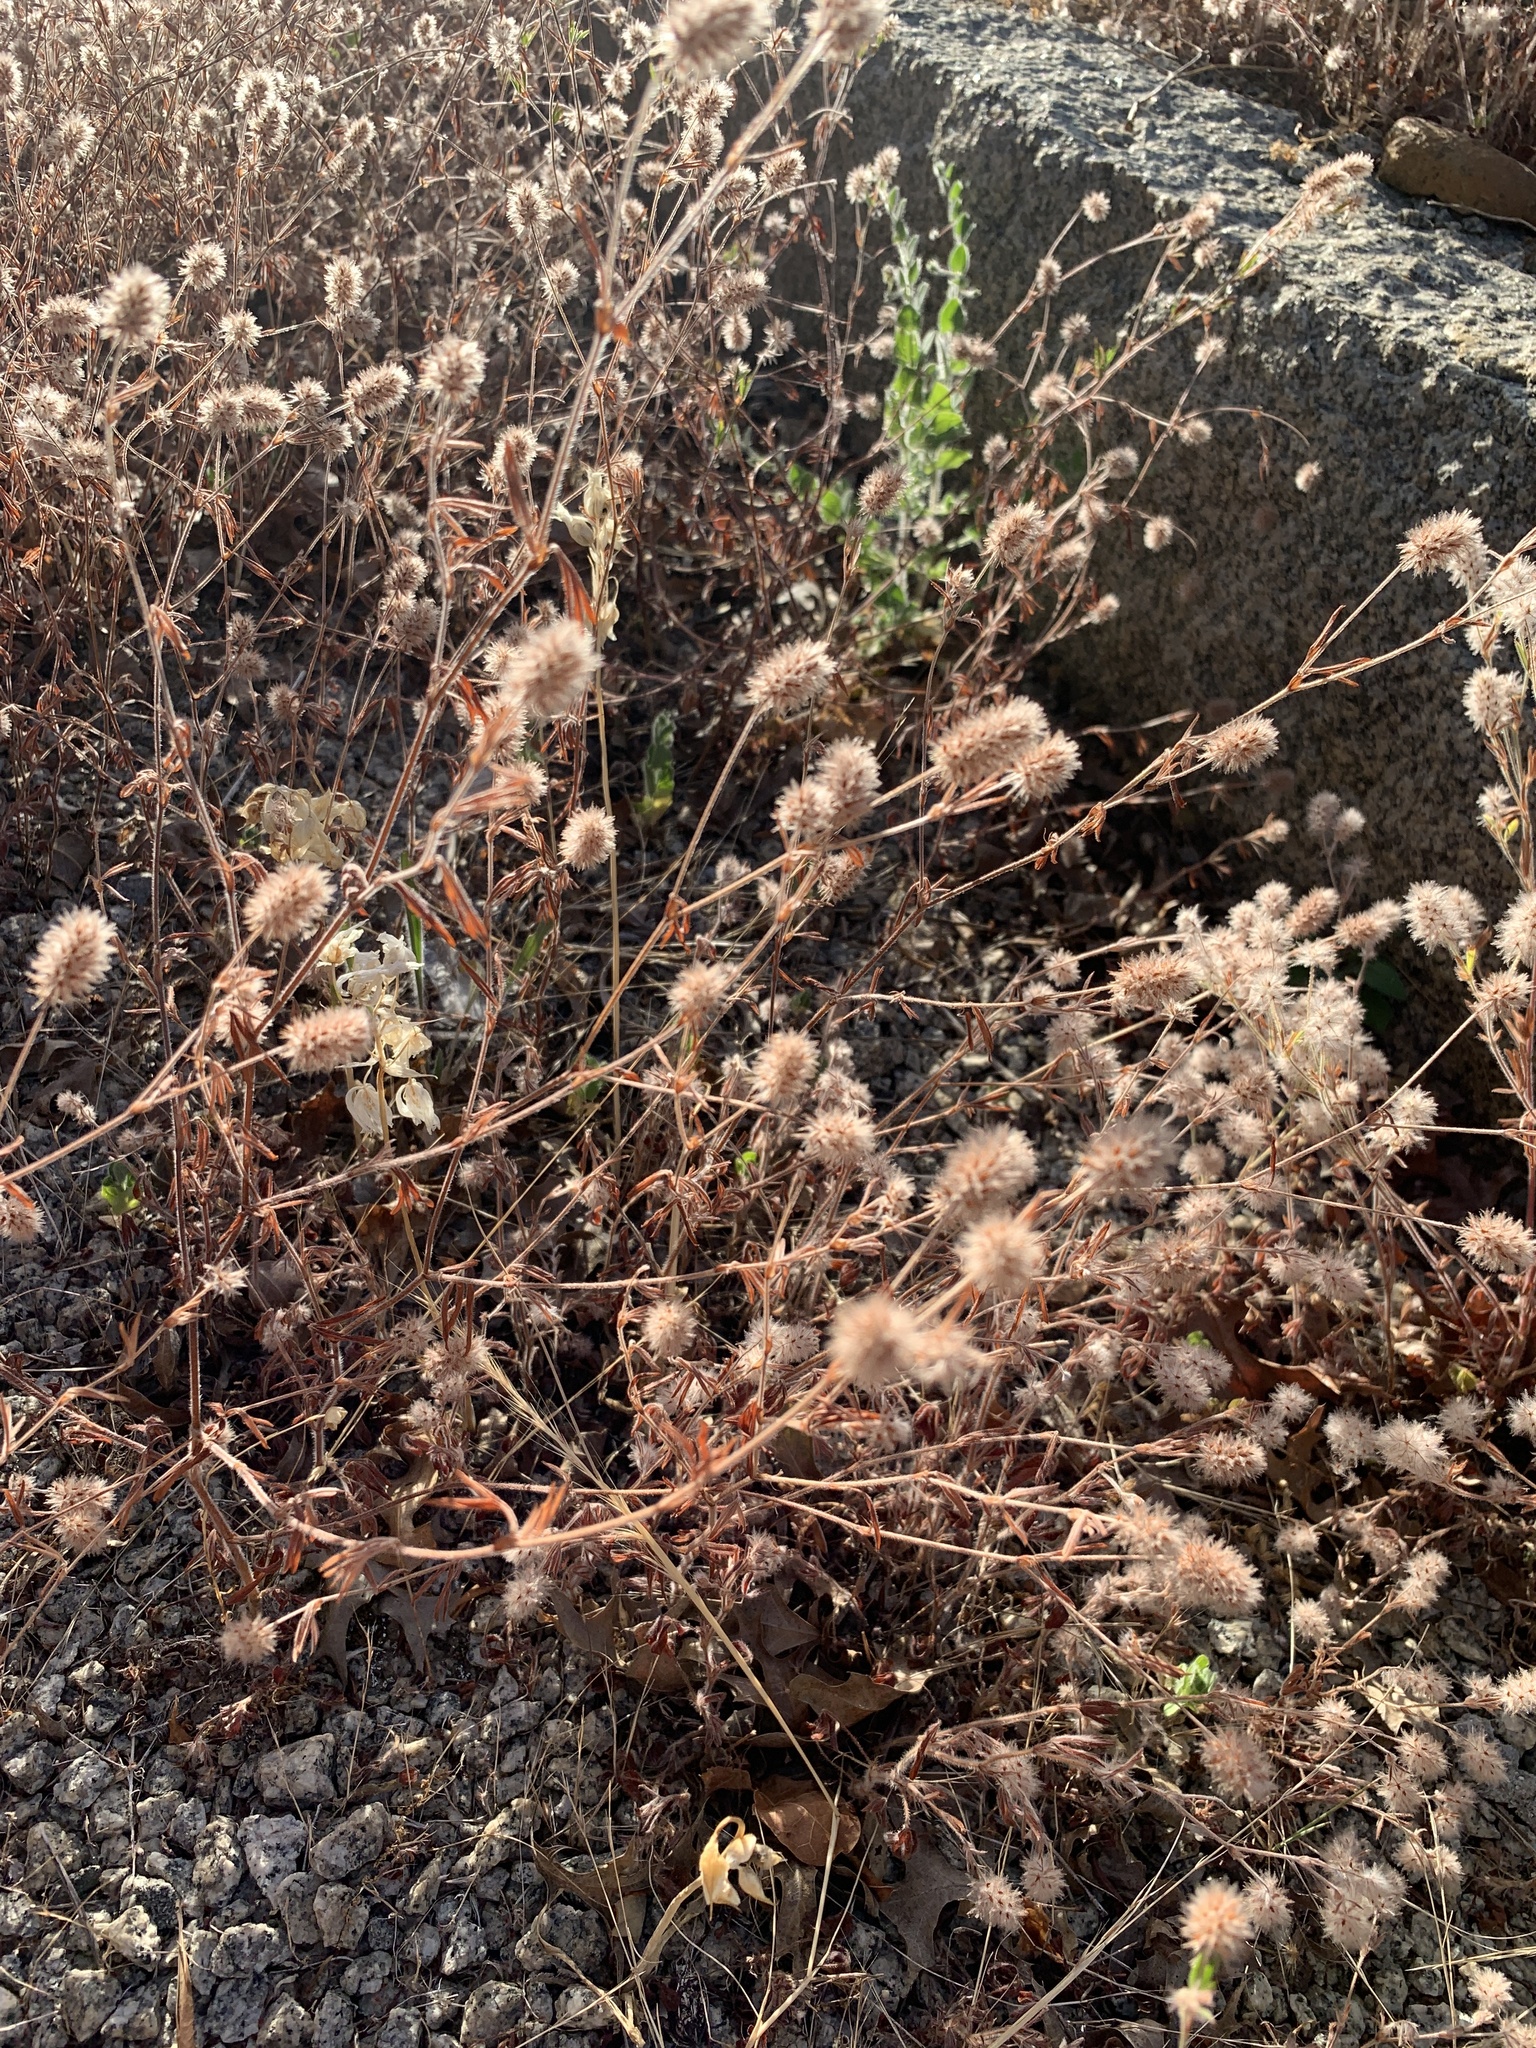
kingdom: Plantae
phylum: Tracheophyta
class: Magnoliopsida
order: Fabales
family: Fabaceae
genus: Trifolium
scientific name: Trifolium arvense
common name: Hare's-foot clover
